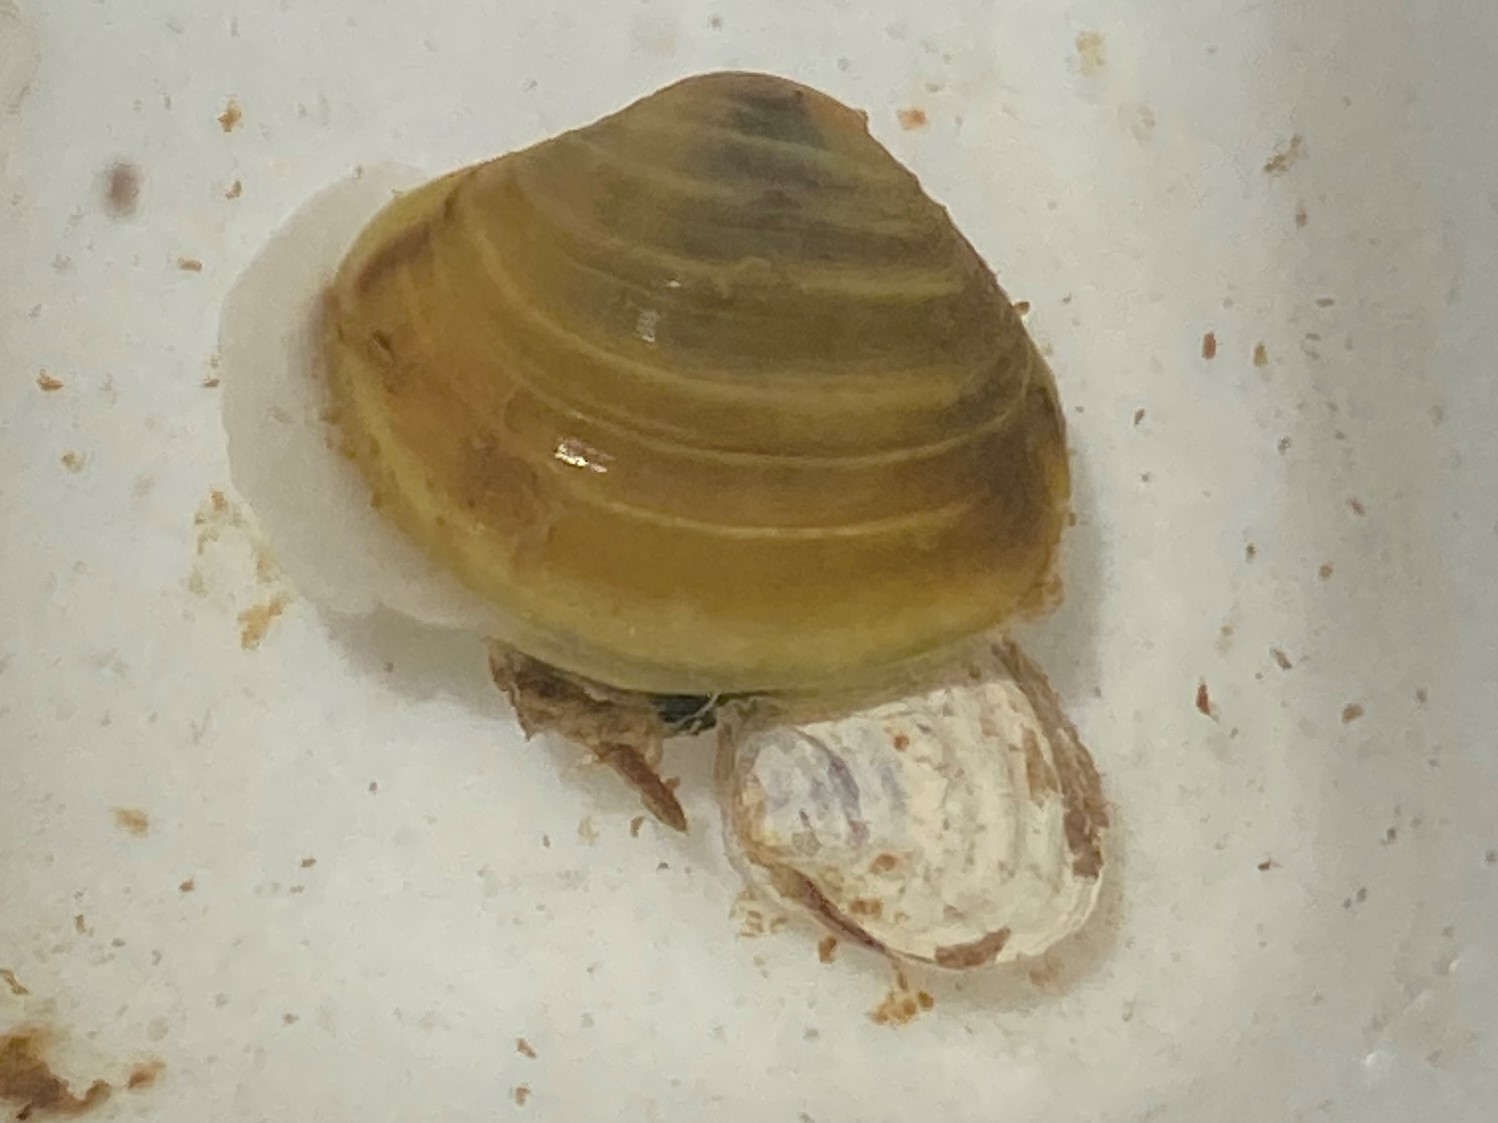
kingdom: Animalia
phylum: Mollusca
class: Bivalvia
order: Venerida
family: Cyrenidae
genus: Corbicula
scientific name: Corbicula fluminea
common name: Asian clam
